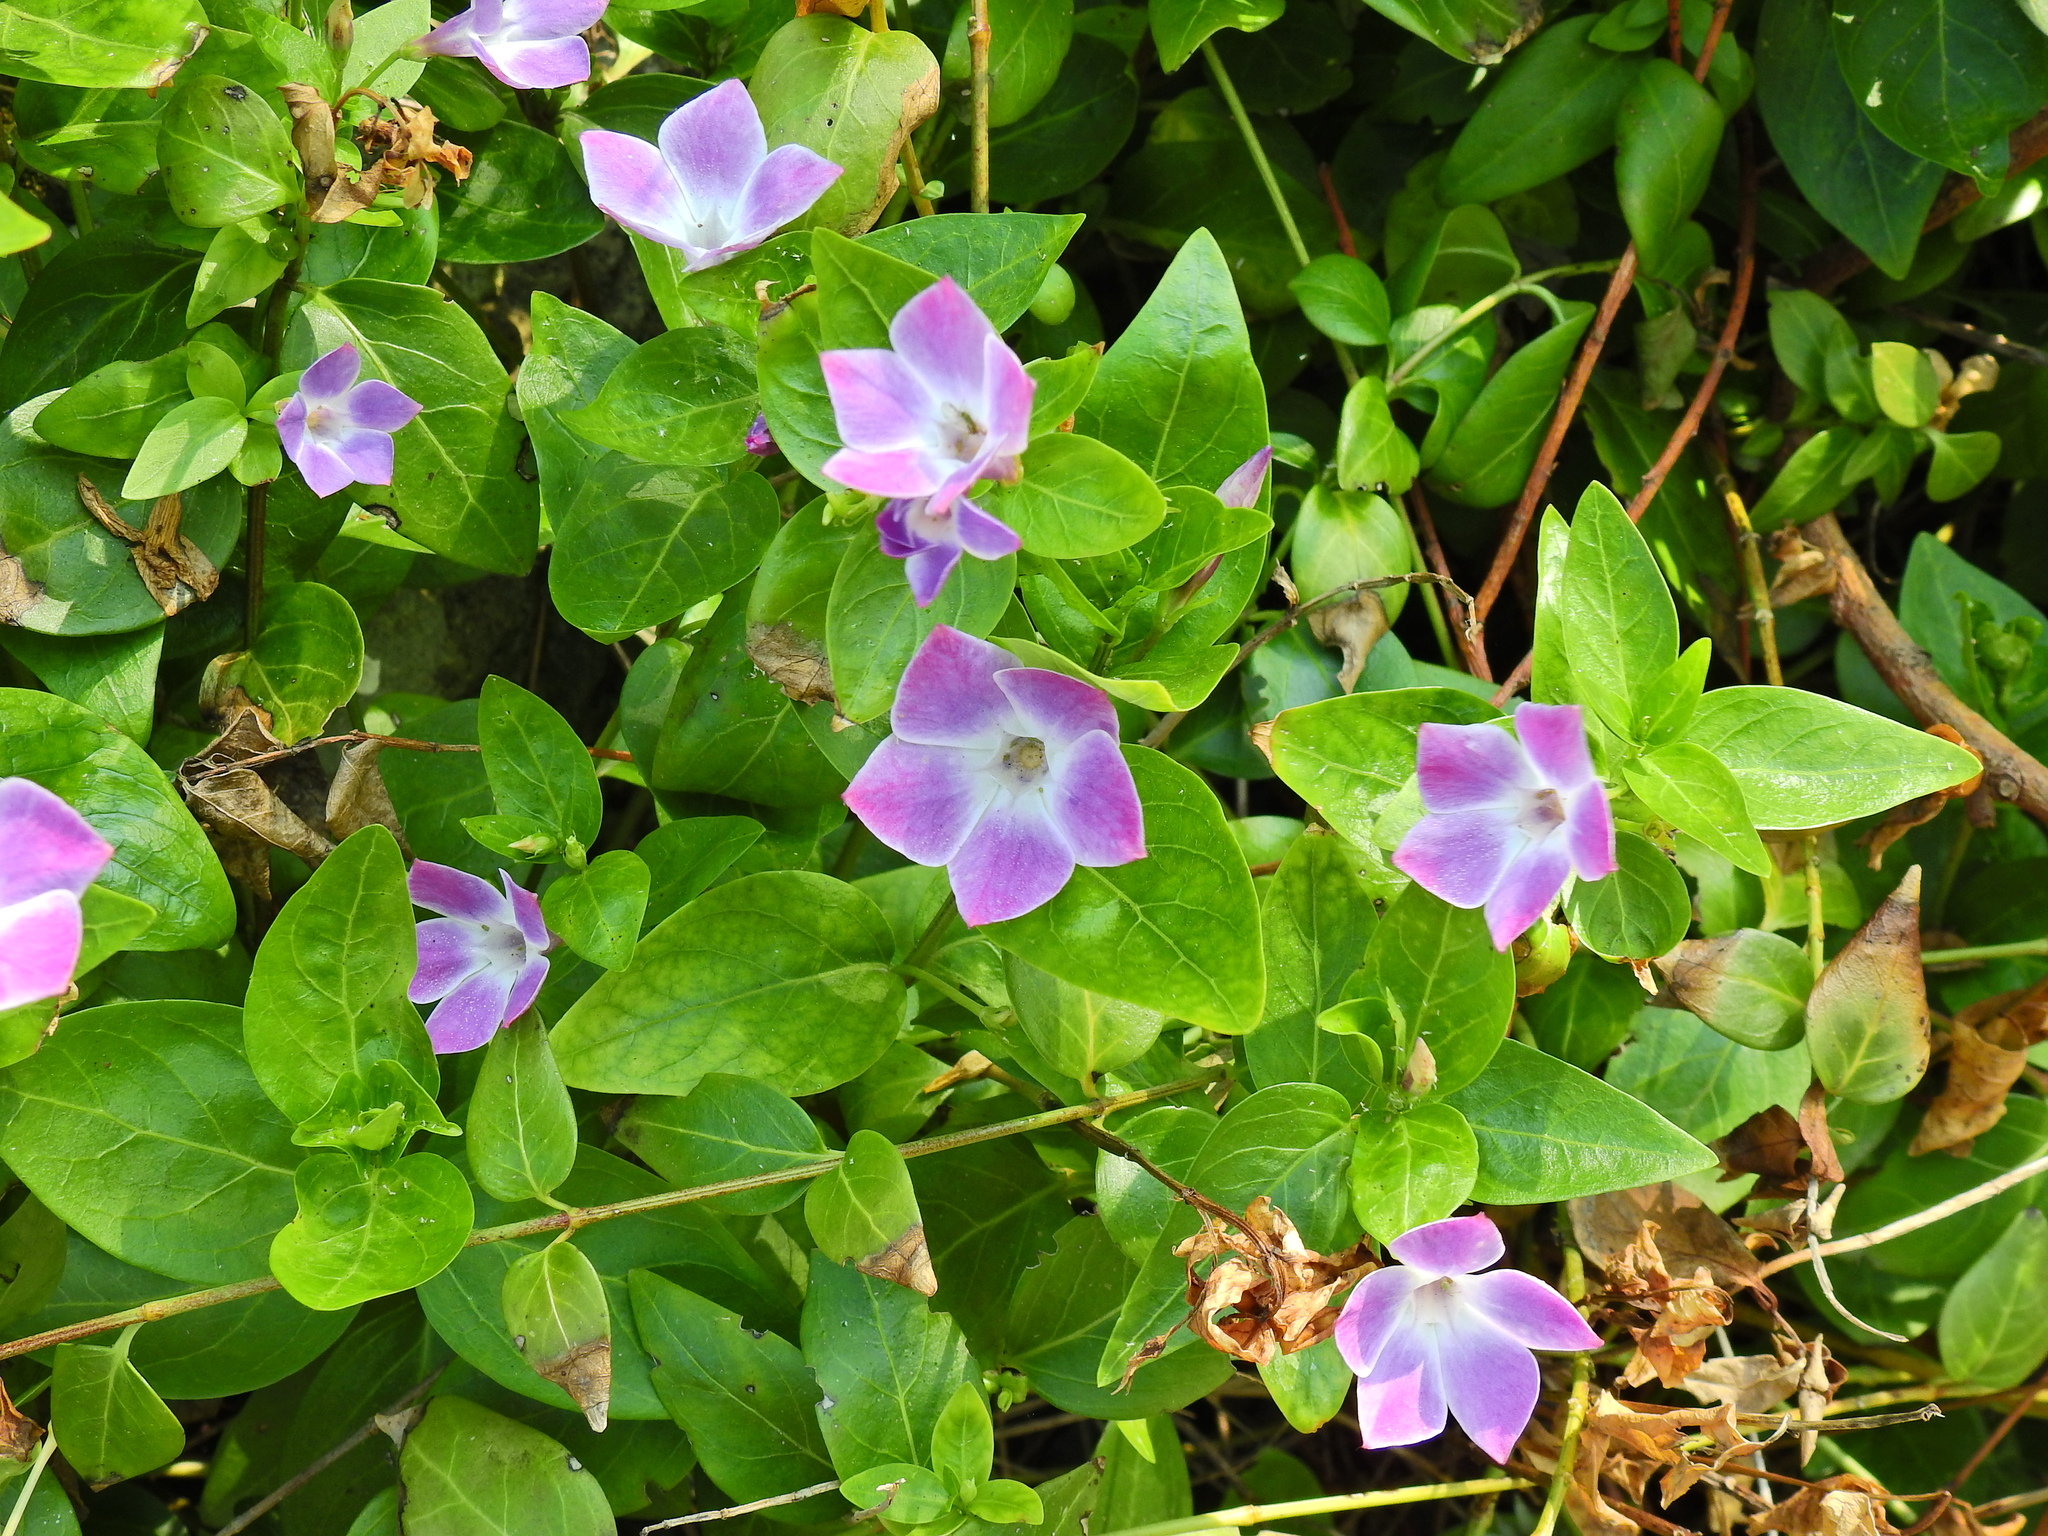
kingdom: Plantae
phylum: Tracheophyta
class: Magnoliopsida
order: Gentianales
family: Apocynaceae
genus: Vinca
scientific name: Vinca difformis
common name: Intermediate periwinkle
